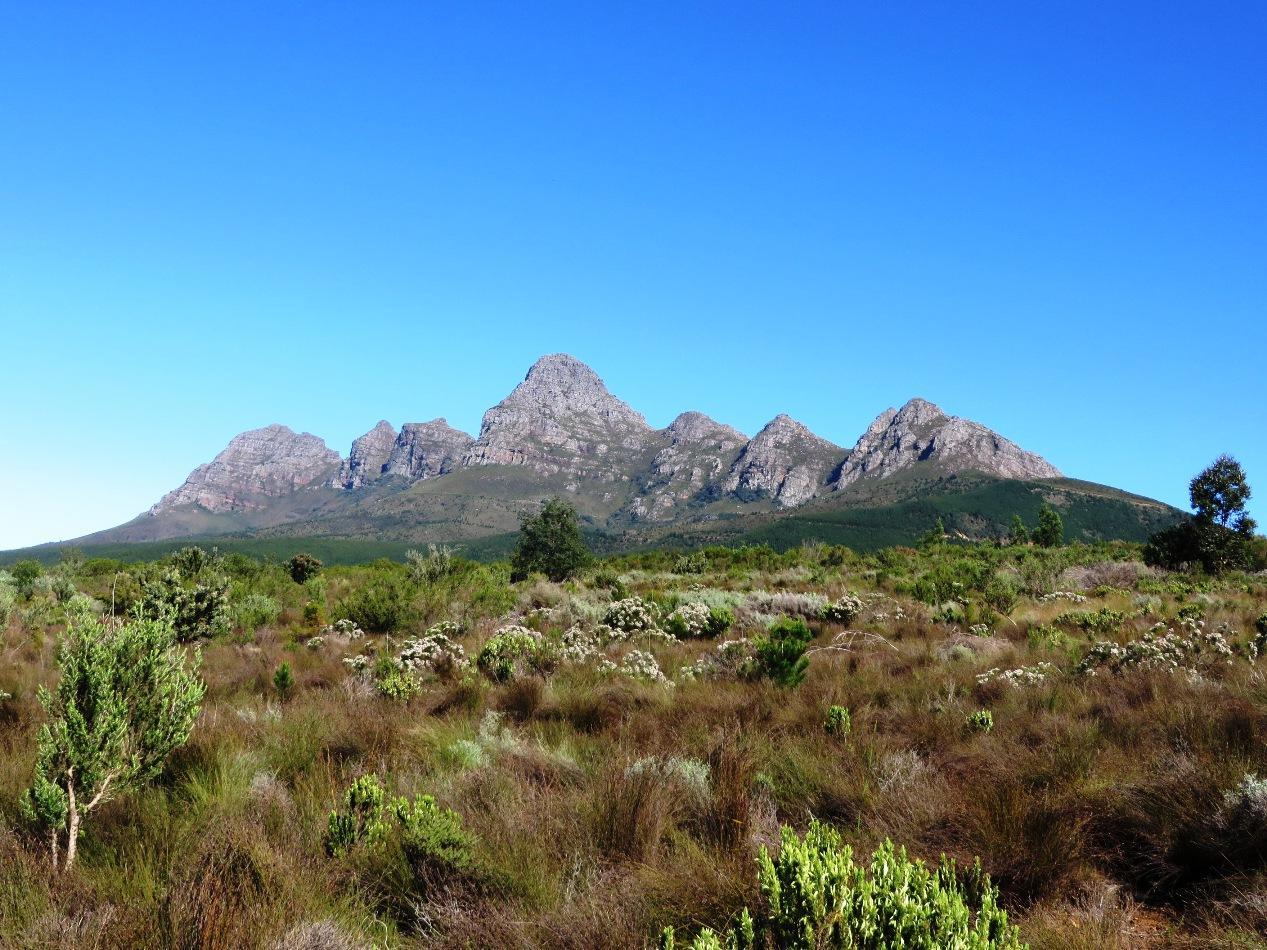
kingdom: Plantae
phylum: Tracheophyta
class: Magnoliopsida
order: Proteales
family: Proteaceae
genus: Serruria
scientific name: Serruria kraussii
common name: Snowball spiderhead
